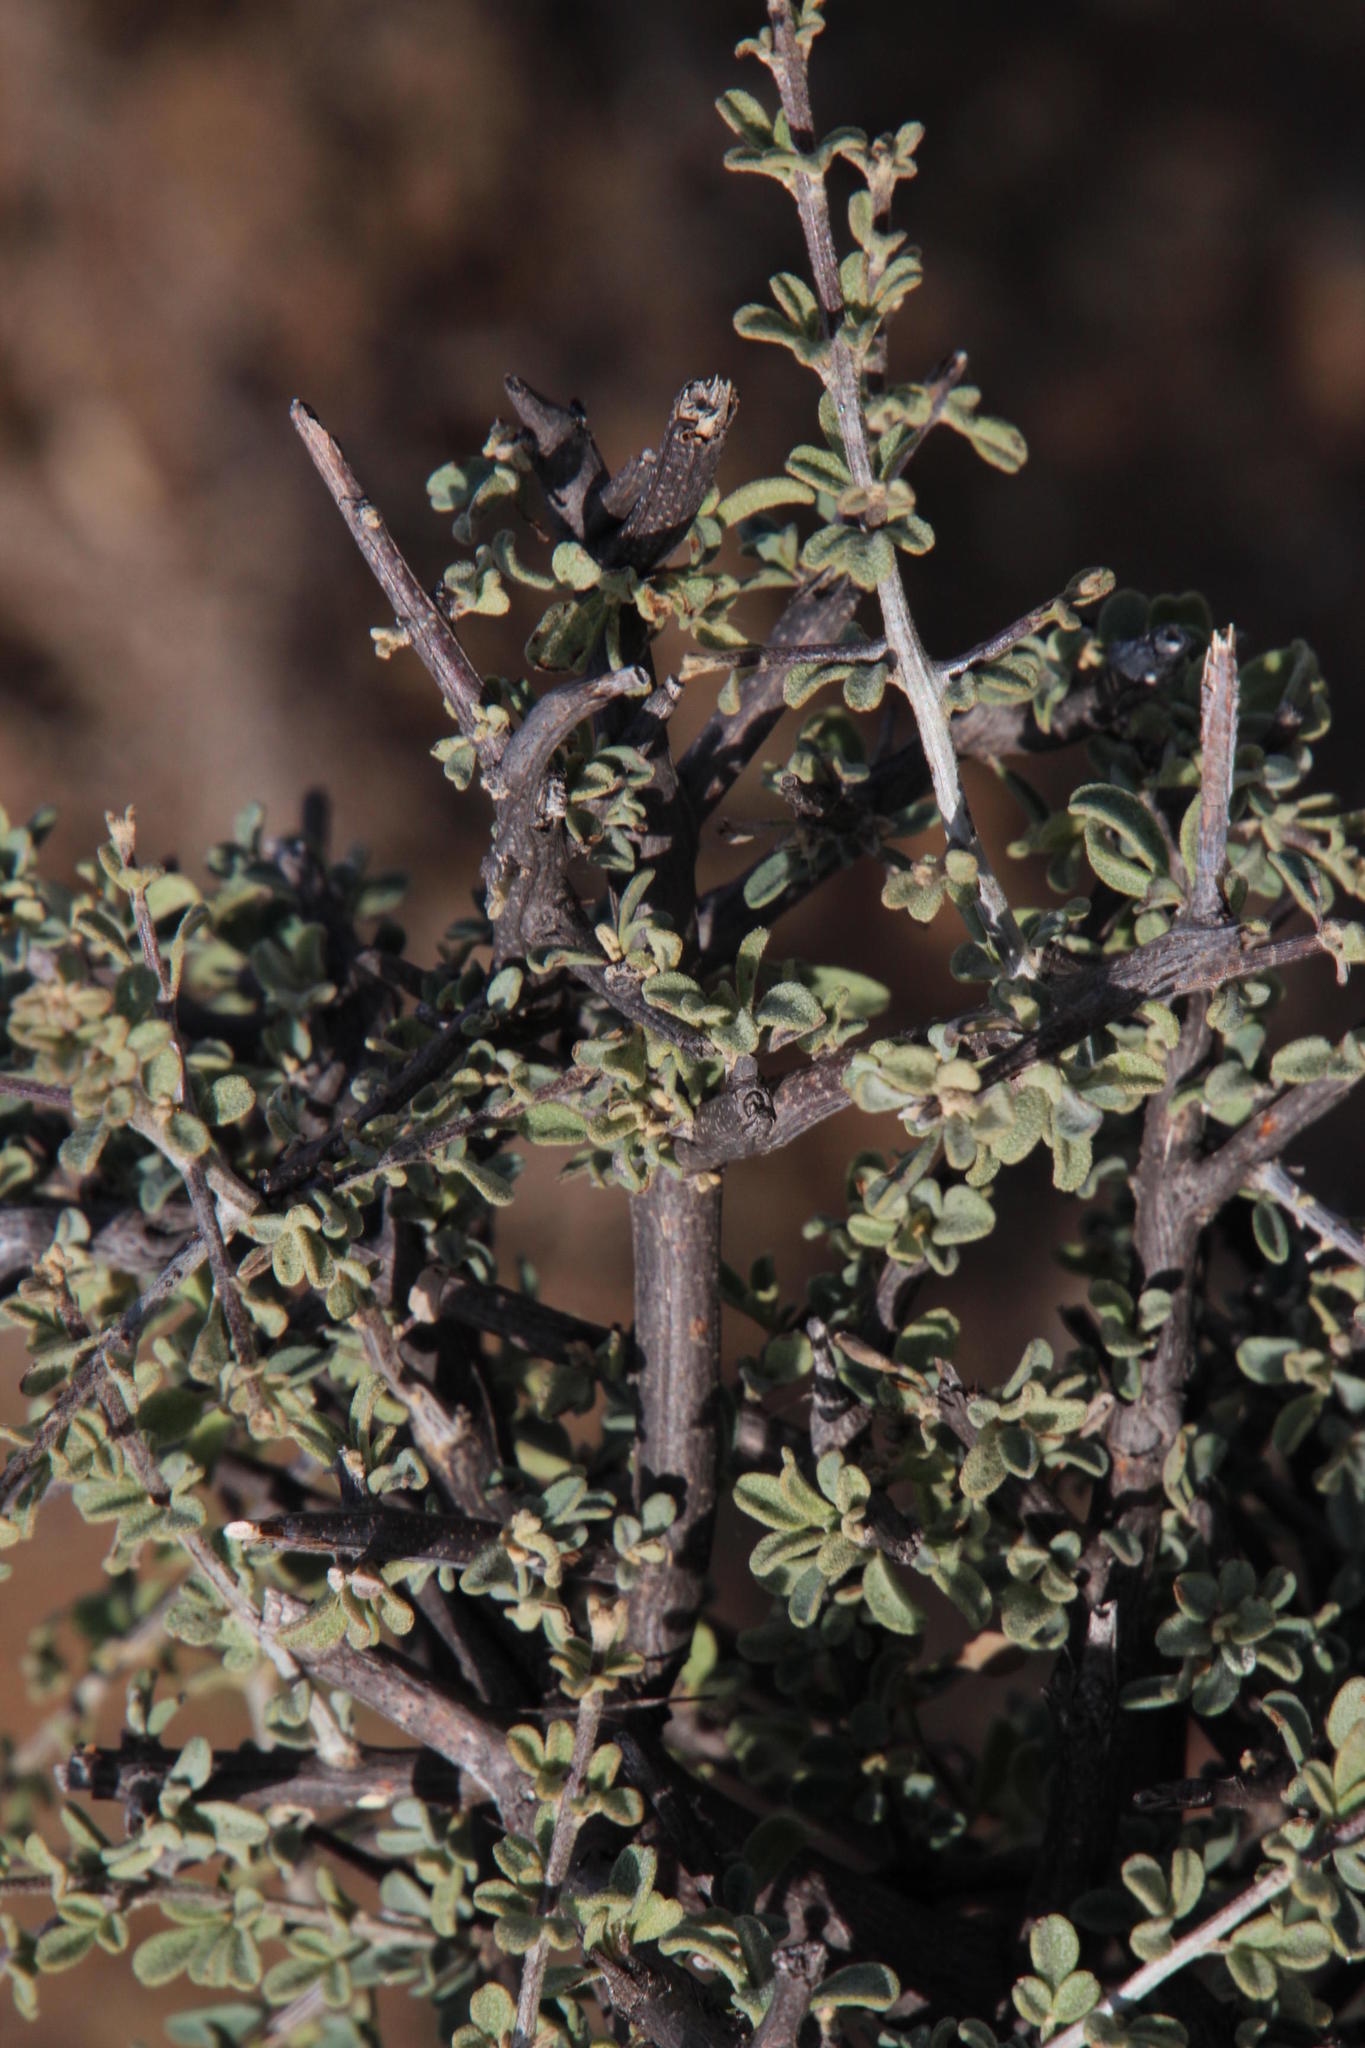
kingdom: Plantae
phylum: Tracheophyta
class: Magnoliopsida
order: Lamiales
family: Bignoniaceae
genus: Rhigozum
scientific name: Rhigozum obovatum
